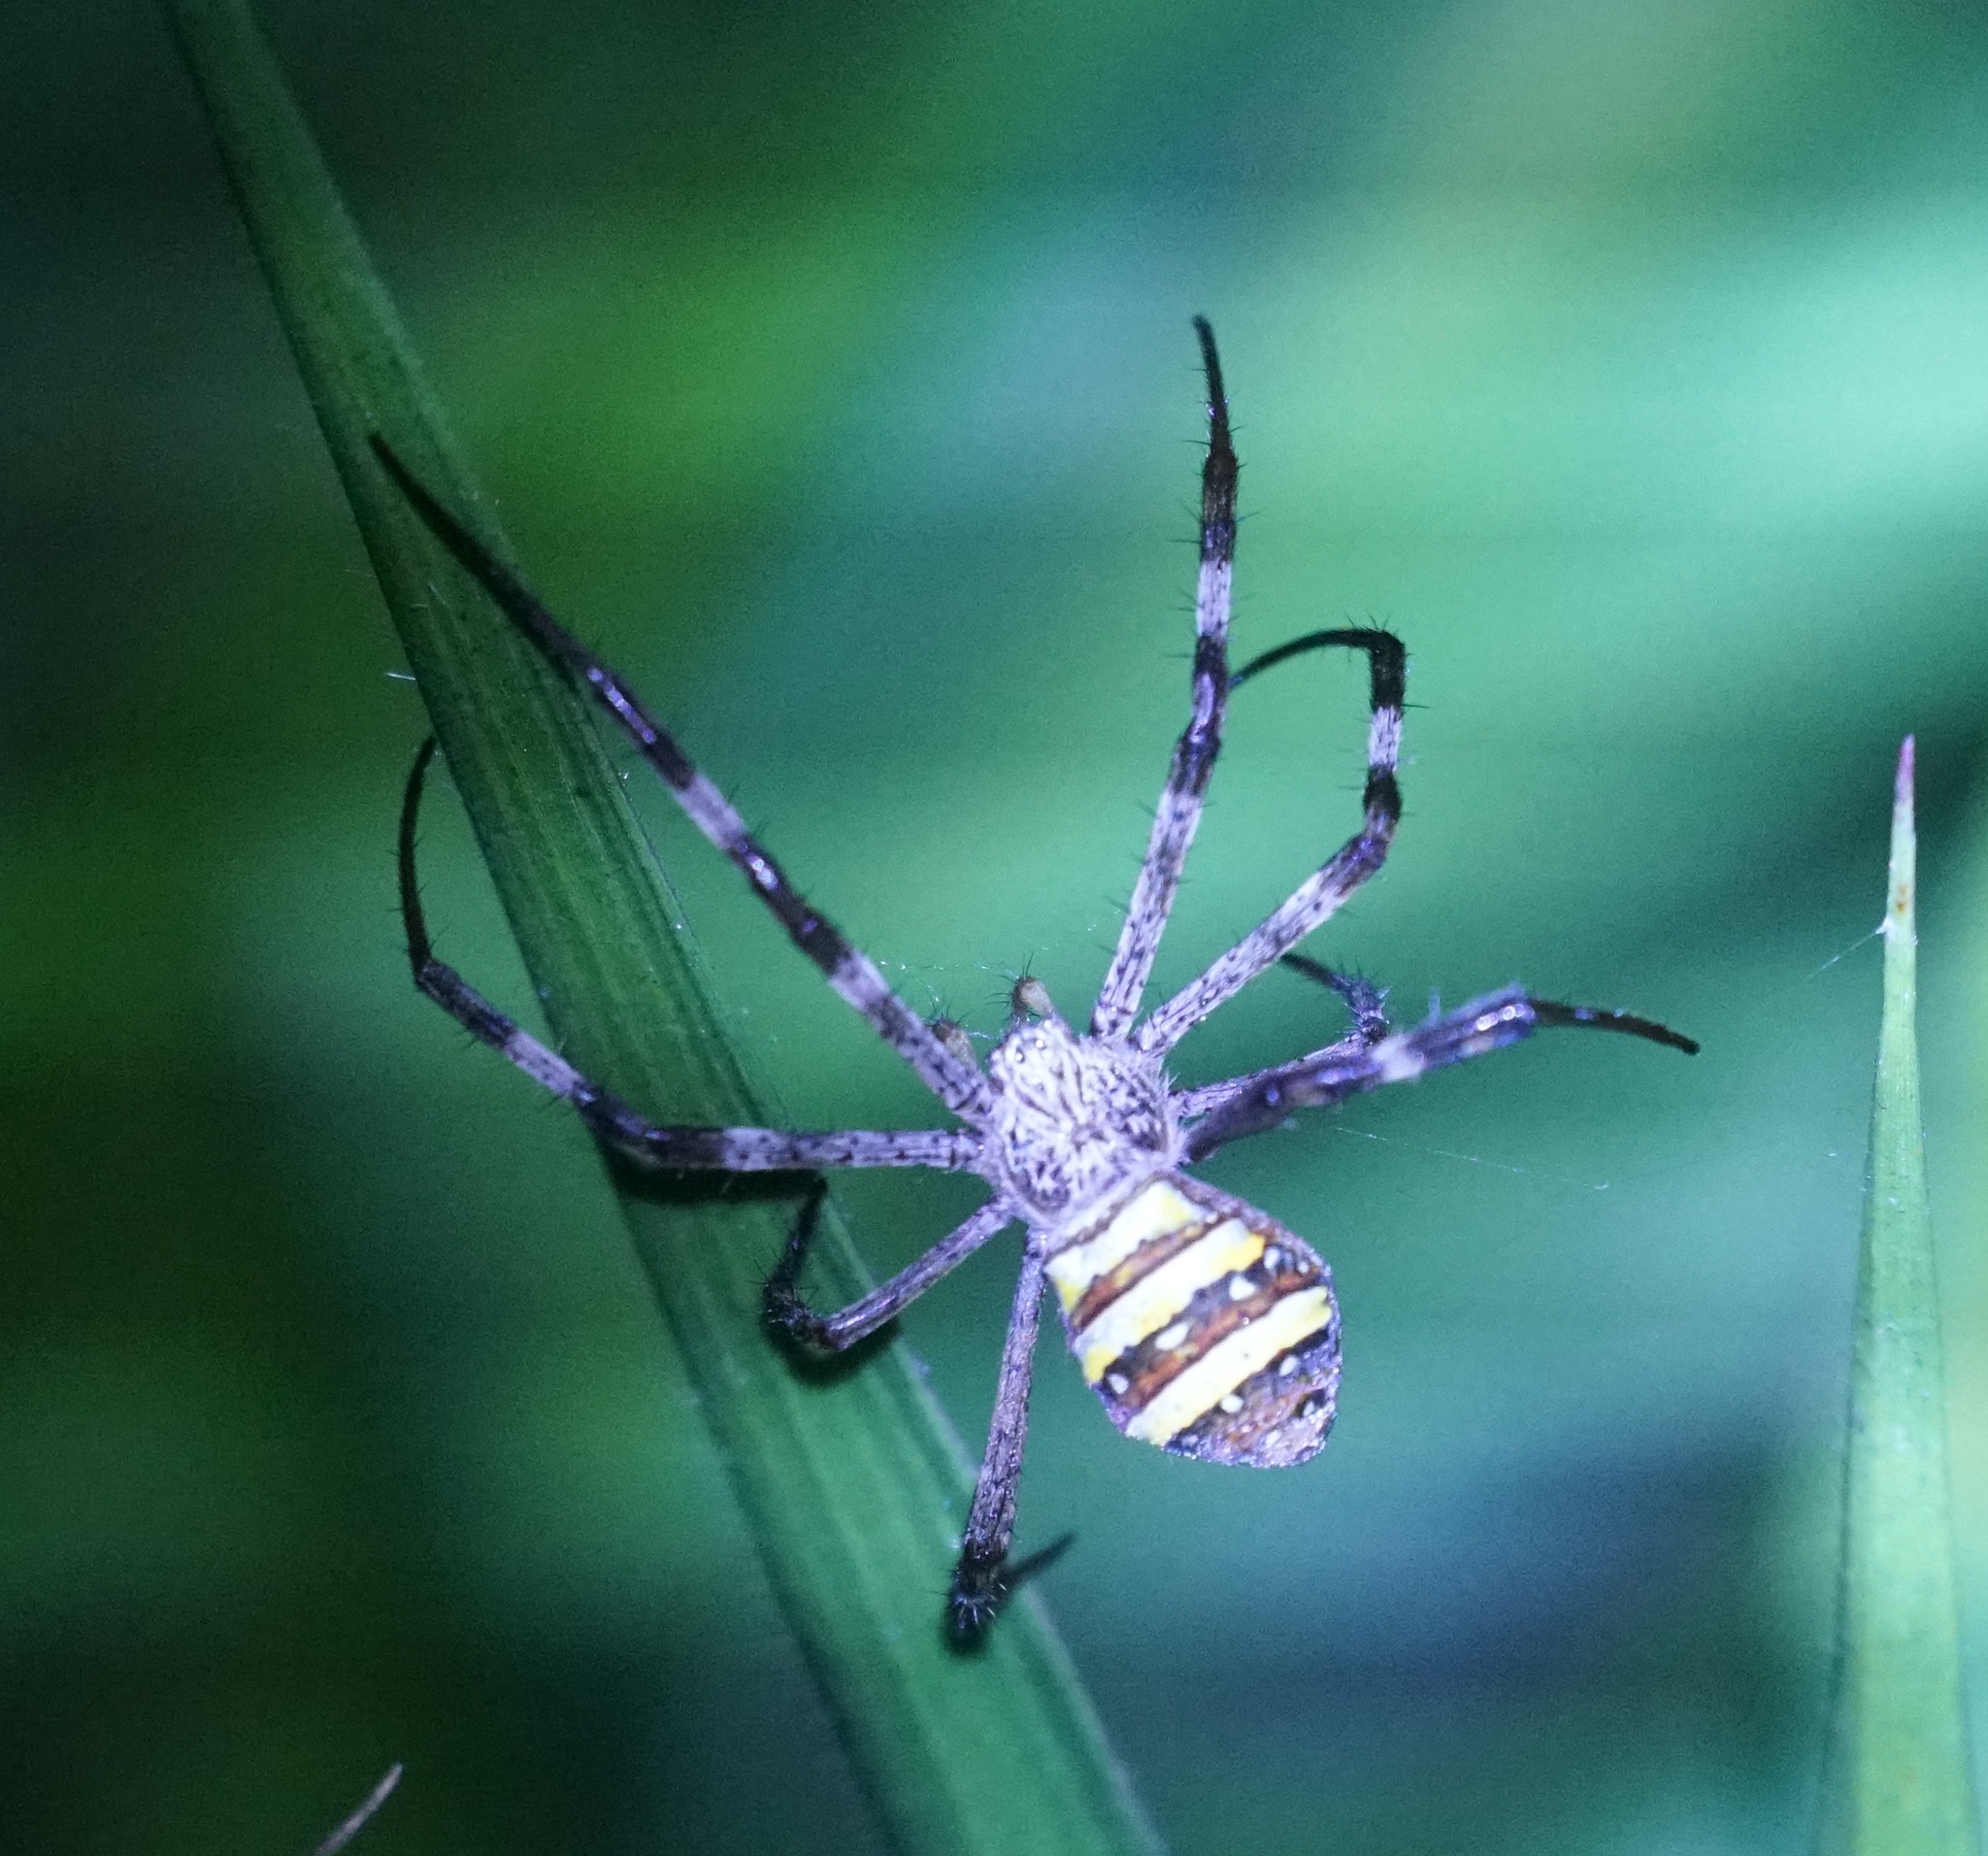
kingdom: Animalia
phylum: Arthropoda
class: Arachnida
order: Araneae
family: Araneidae
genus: Argiope
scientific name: Argiope aetherea
